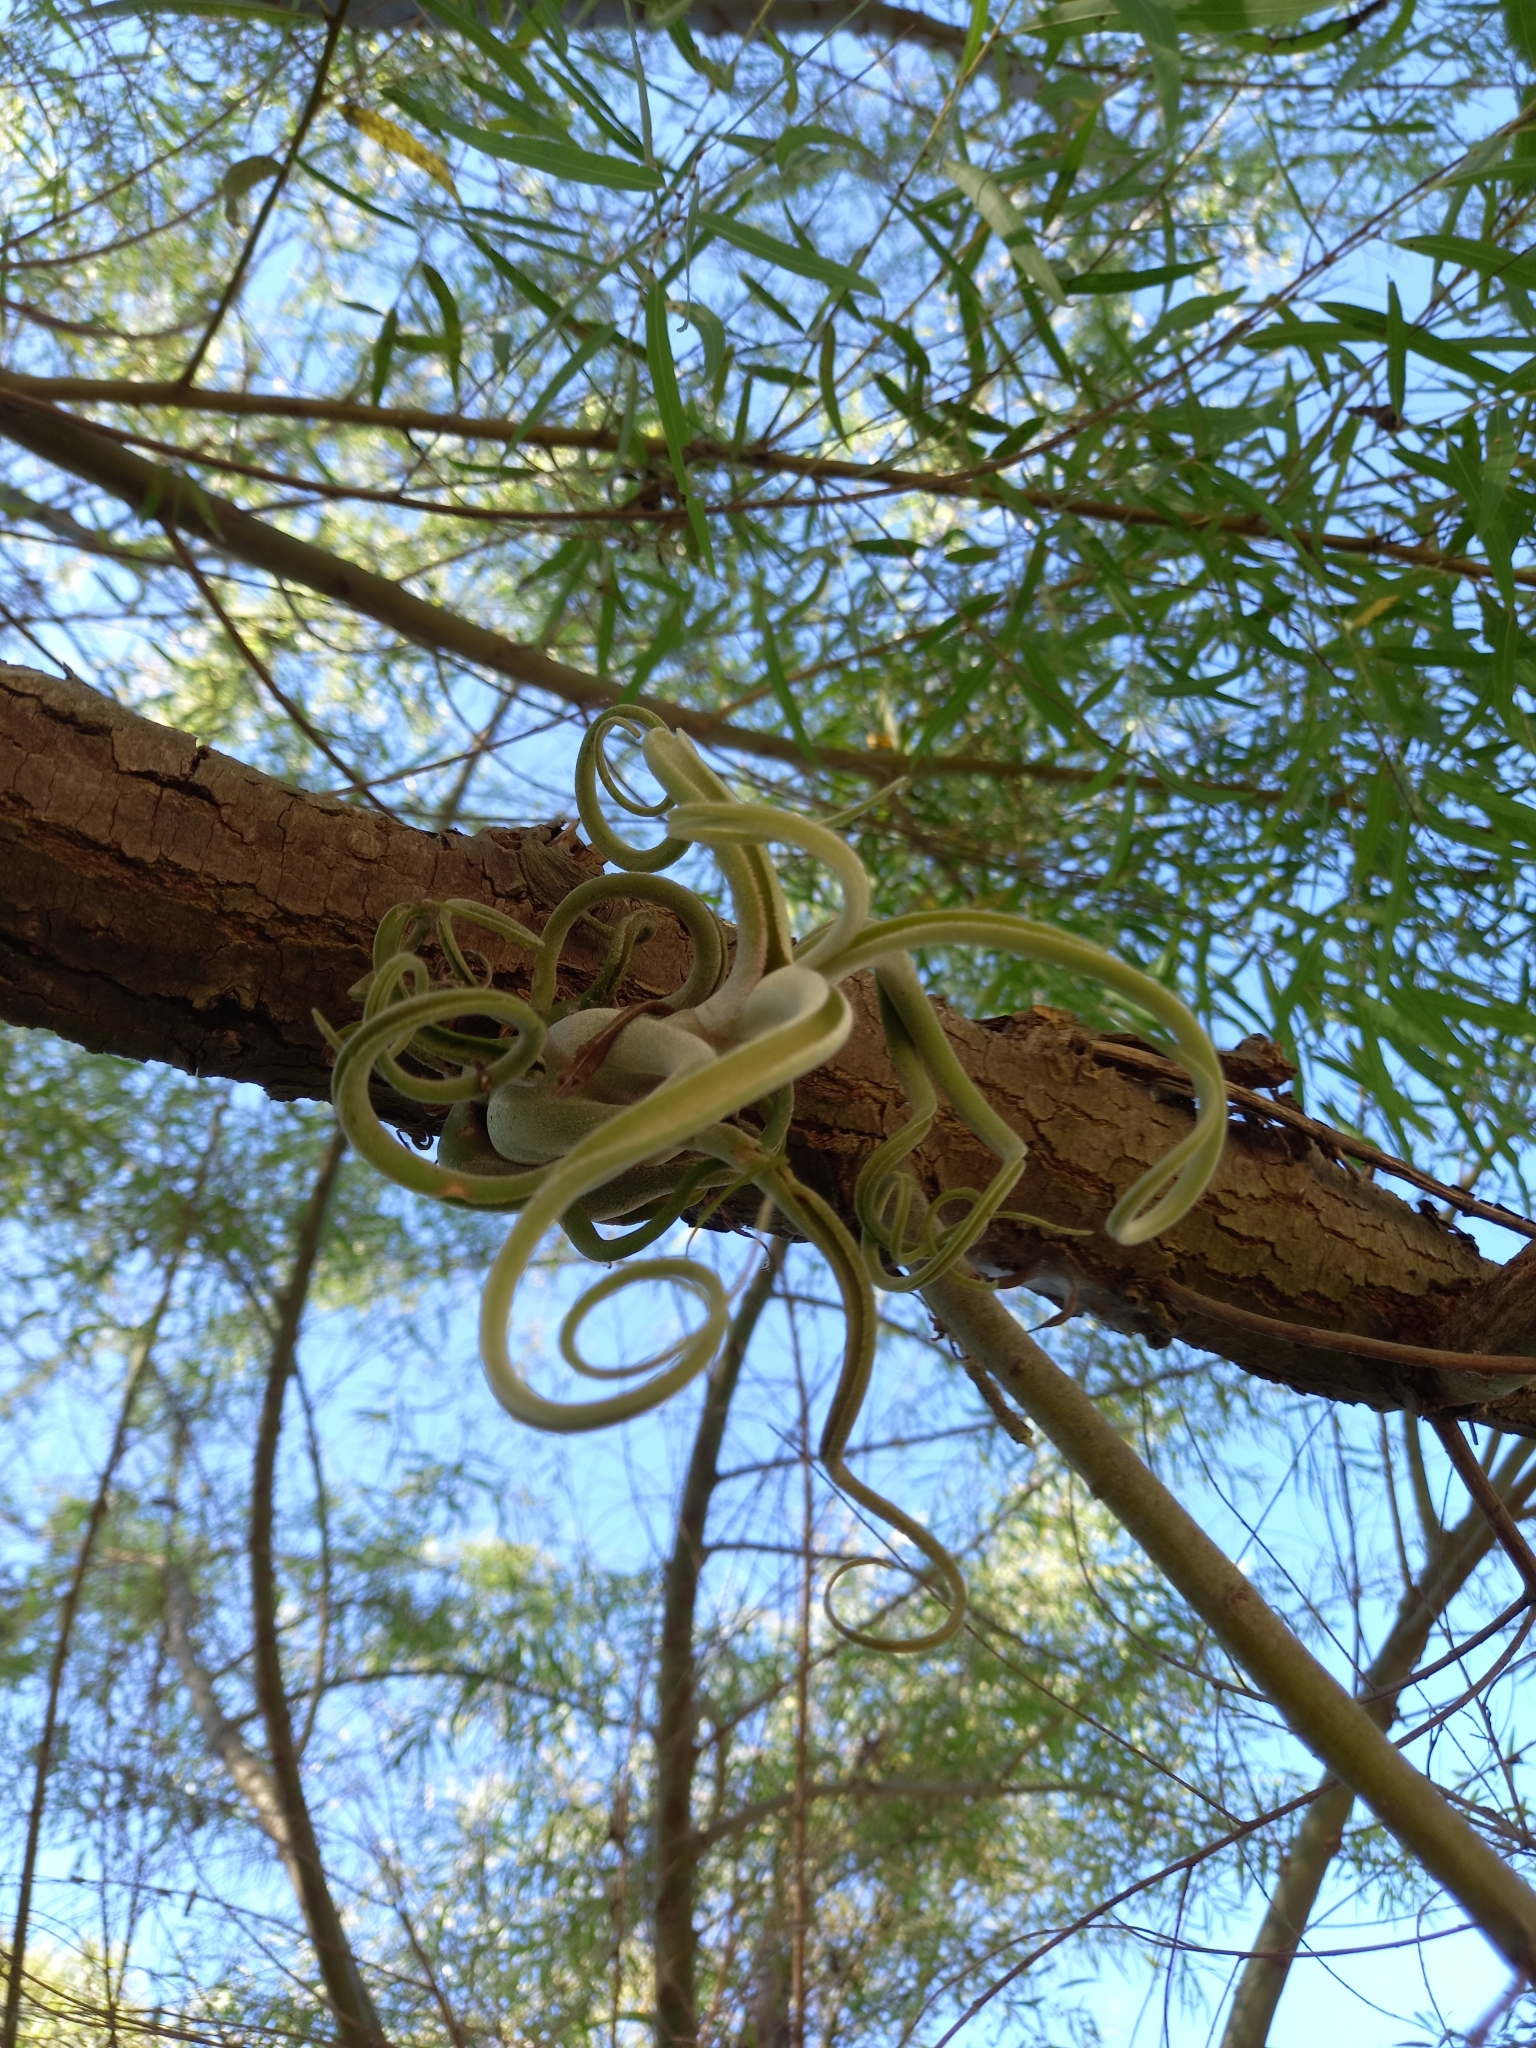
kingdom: Plantae
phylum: Tracheophyta
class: Liliopsida
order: Poales
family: Bromeliaceae
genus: Tillandsia
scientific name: Tillandsia caput-medusae
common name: Octopus plant
